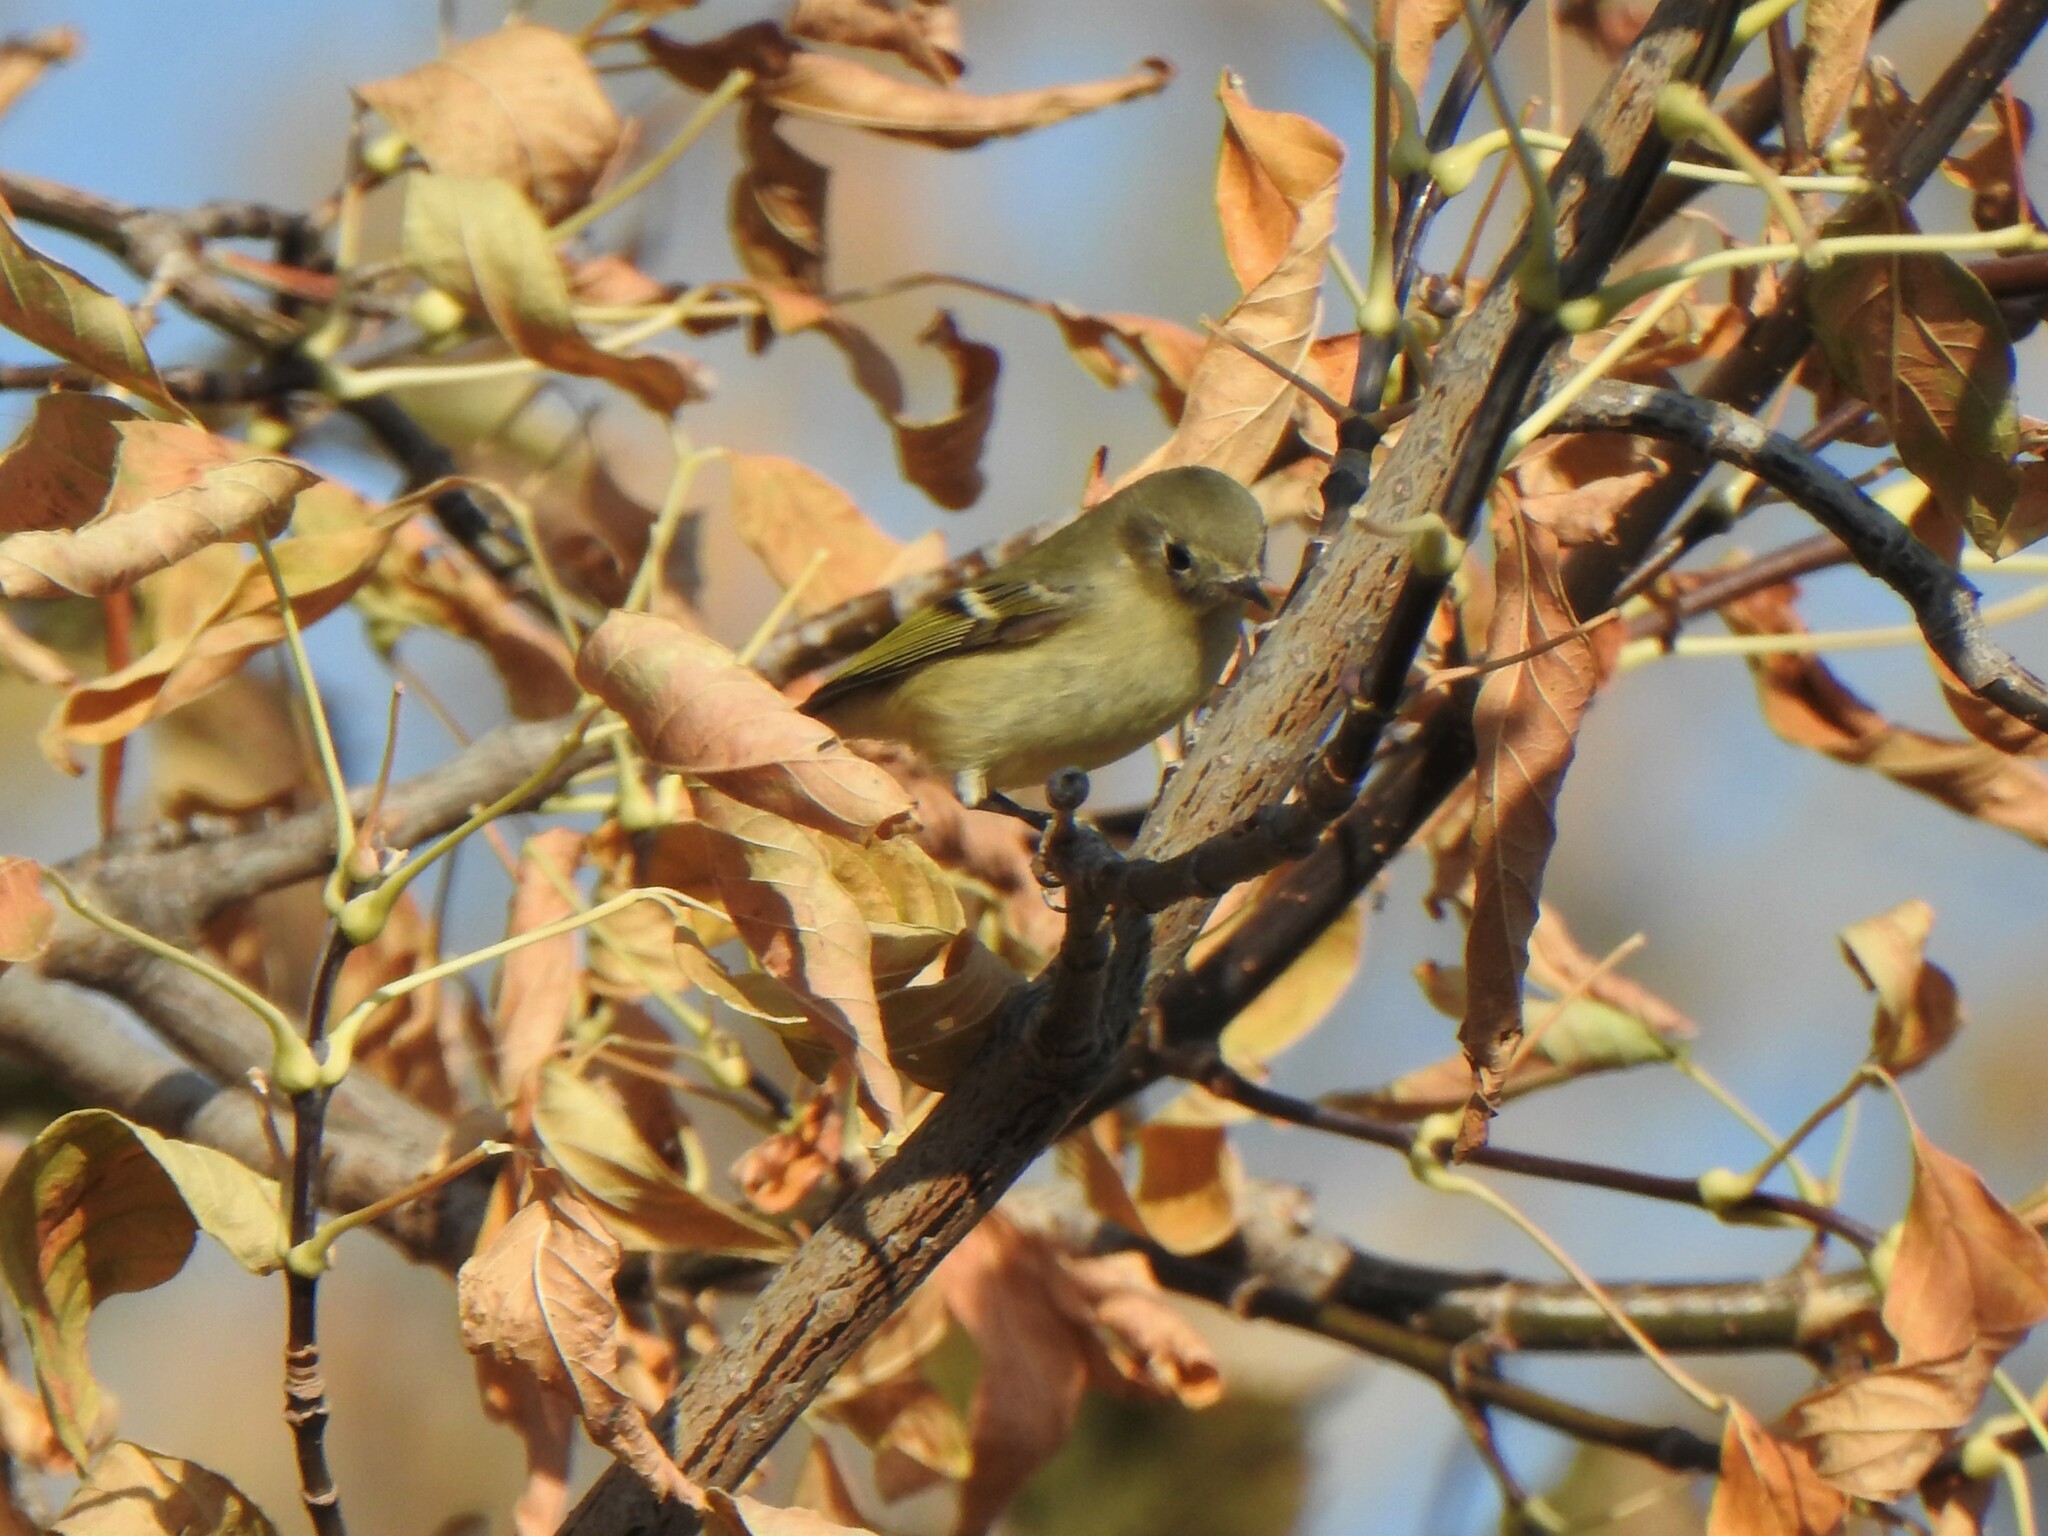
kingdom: Animalia
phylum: Chordata
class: Aves
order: Passeriformes
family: Regulidae
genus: Regulus
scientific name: Regulus calendula
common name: Ruby-crowned kinglet
